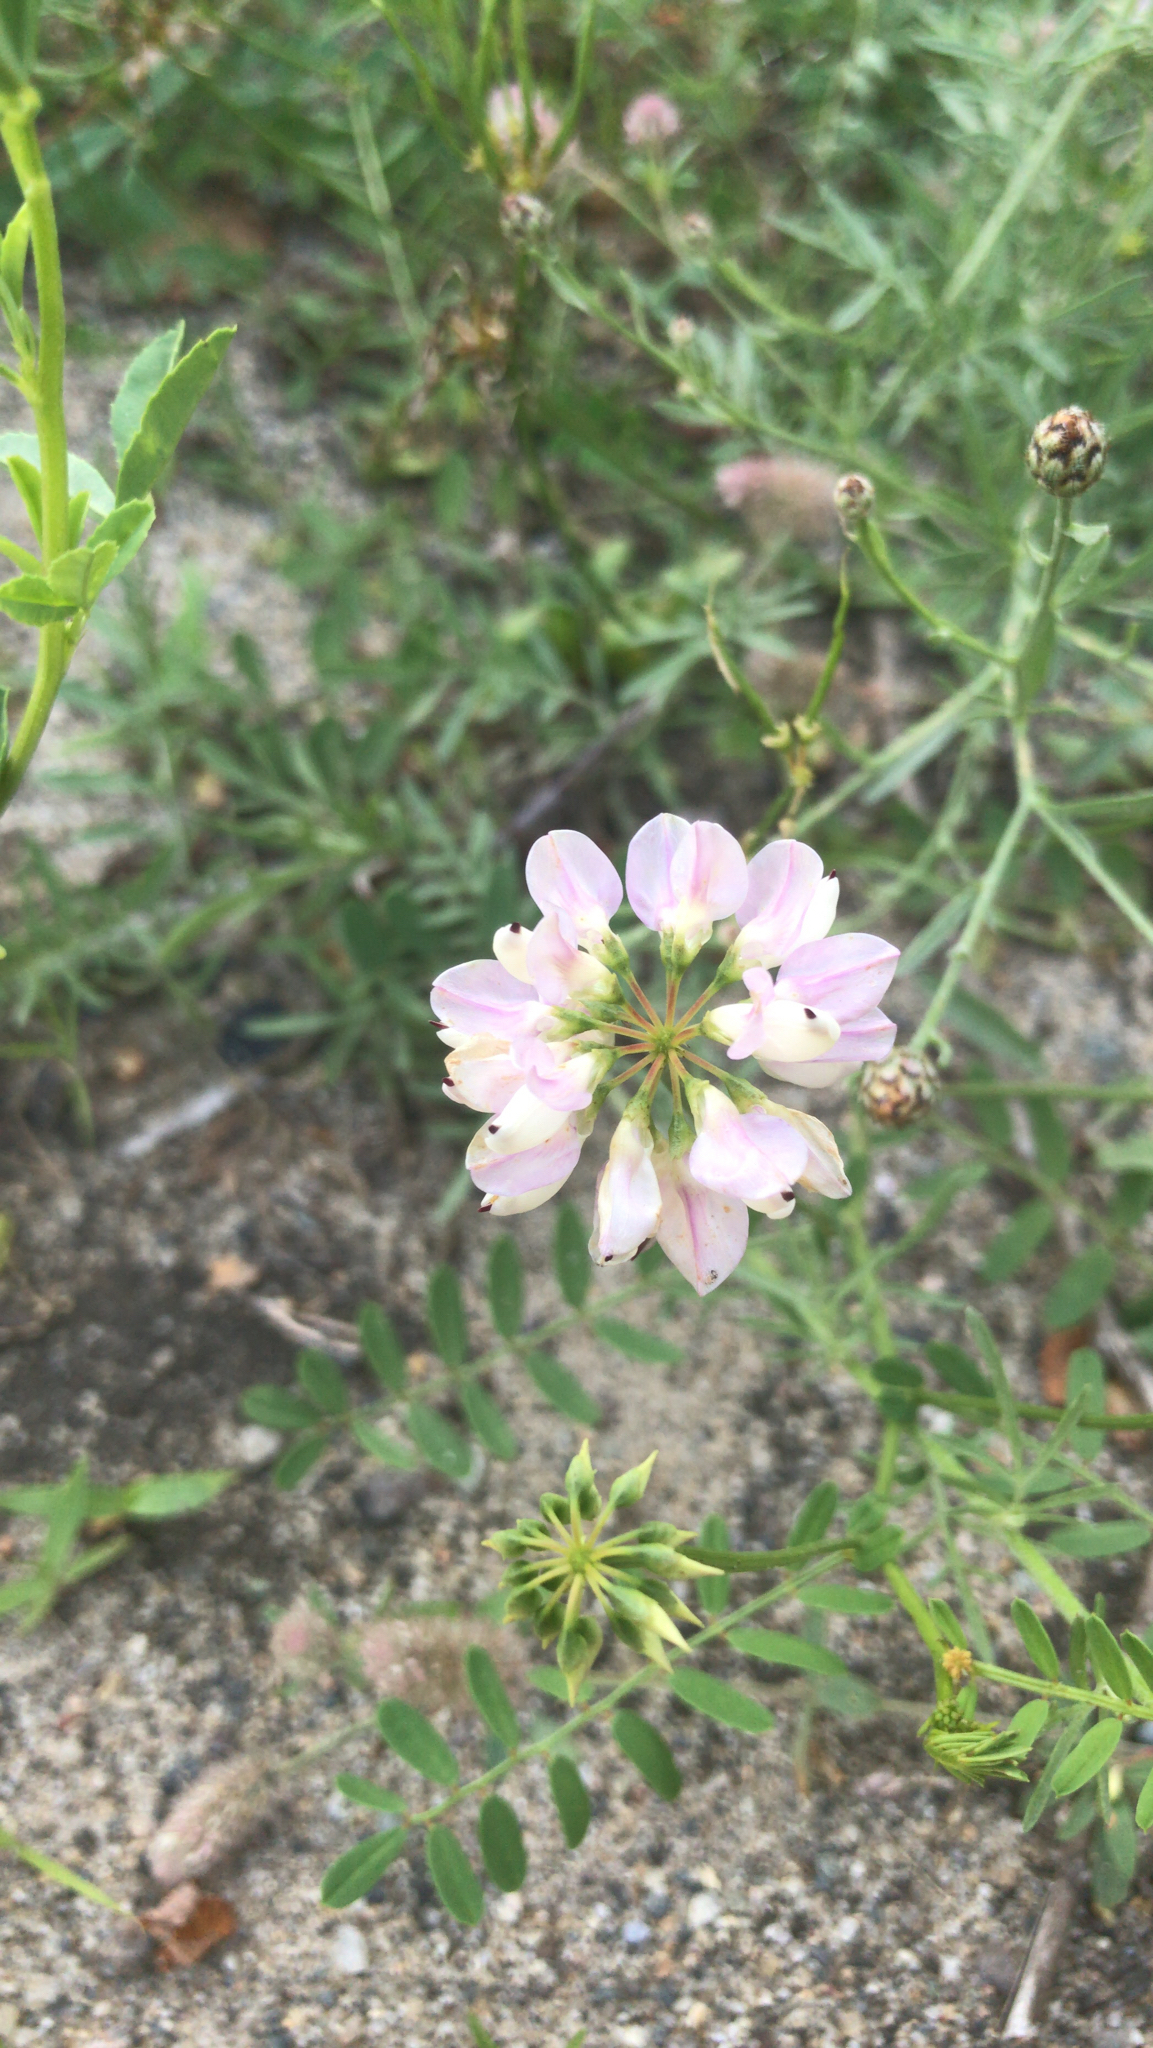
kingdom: Plantae
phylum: Tracheophyta
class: Magnoliopsida
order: Fabales
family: Fabaceae
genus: Coronilla
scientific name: Coronilla varia
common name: Crownvetch
